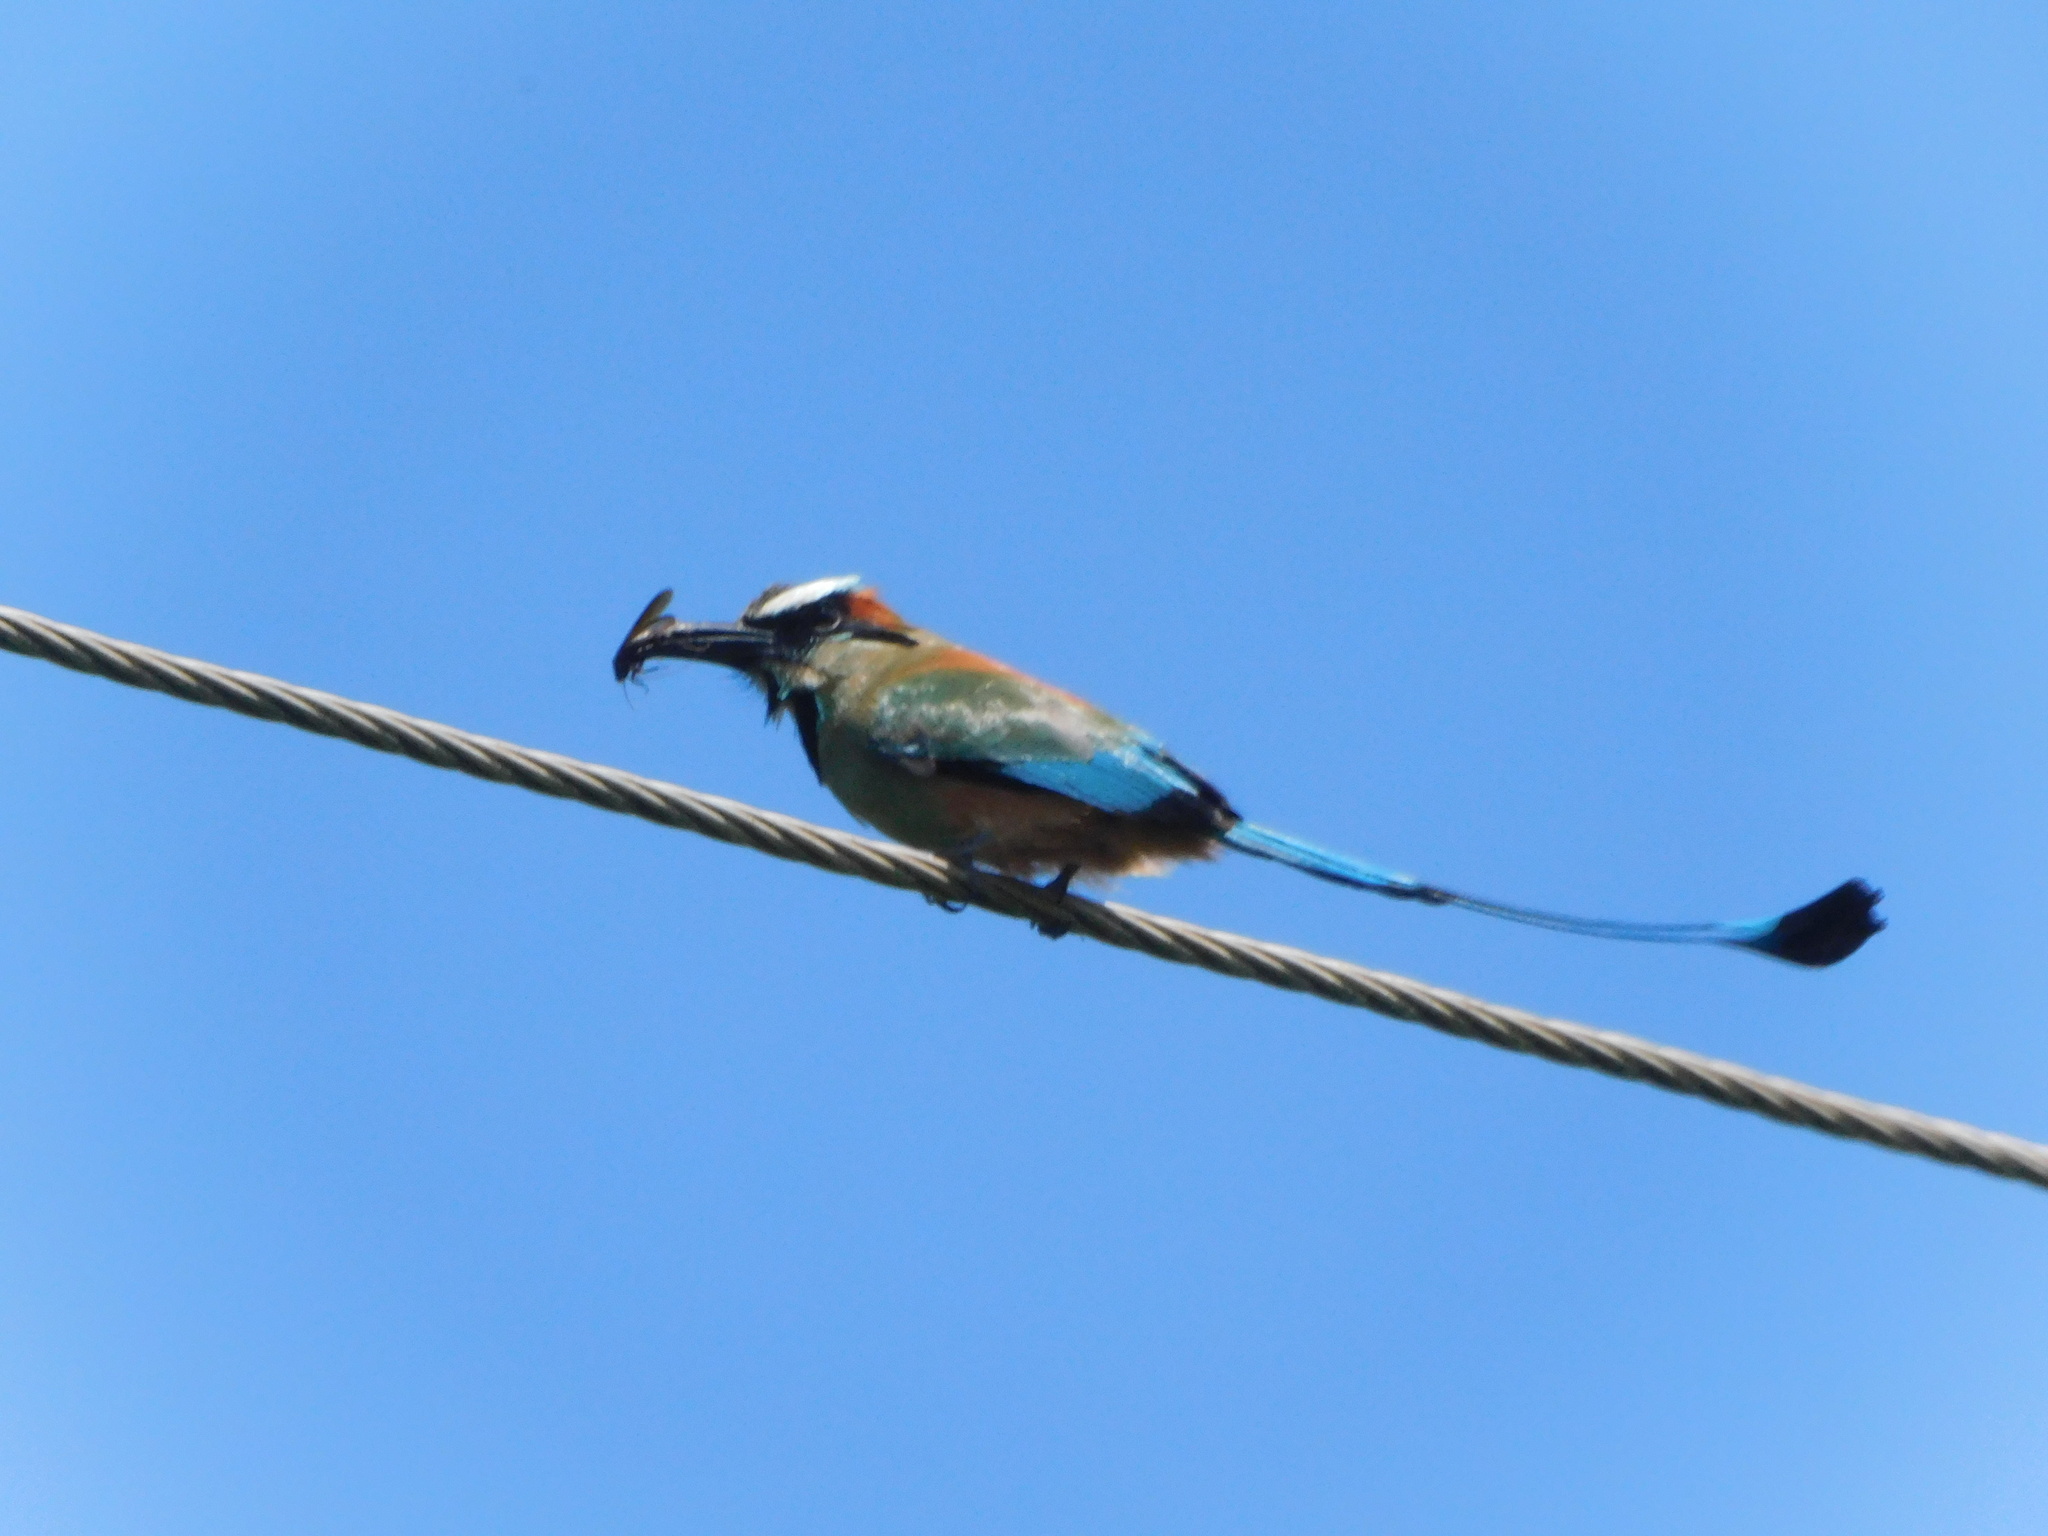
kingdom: Animalia
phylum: Chordata
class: Aves
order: Coraciiformes
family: Momotidae
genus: Eumomota
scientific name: Eumomota superciliosa
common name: Turquoise-browed motmot
